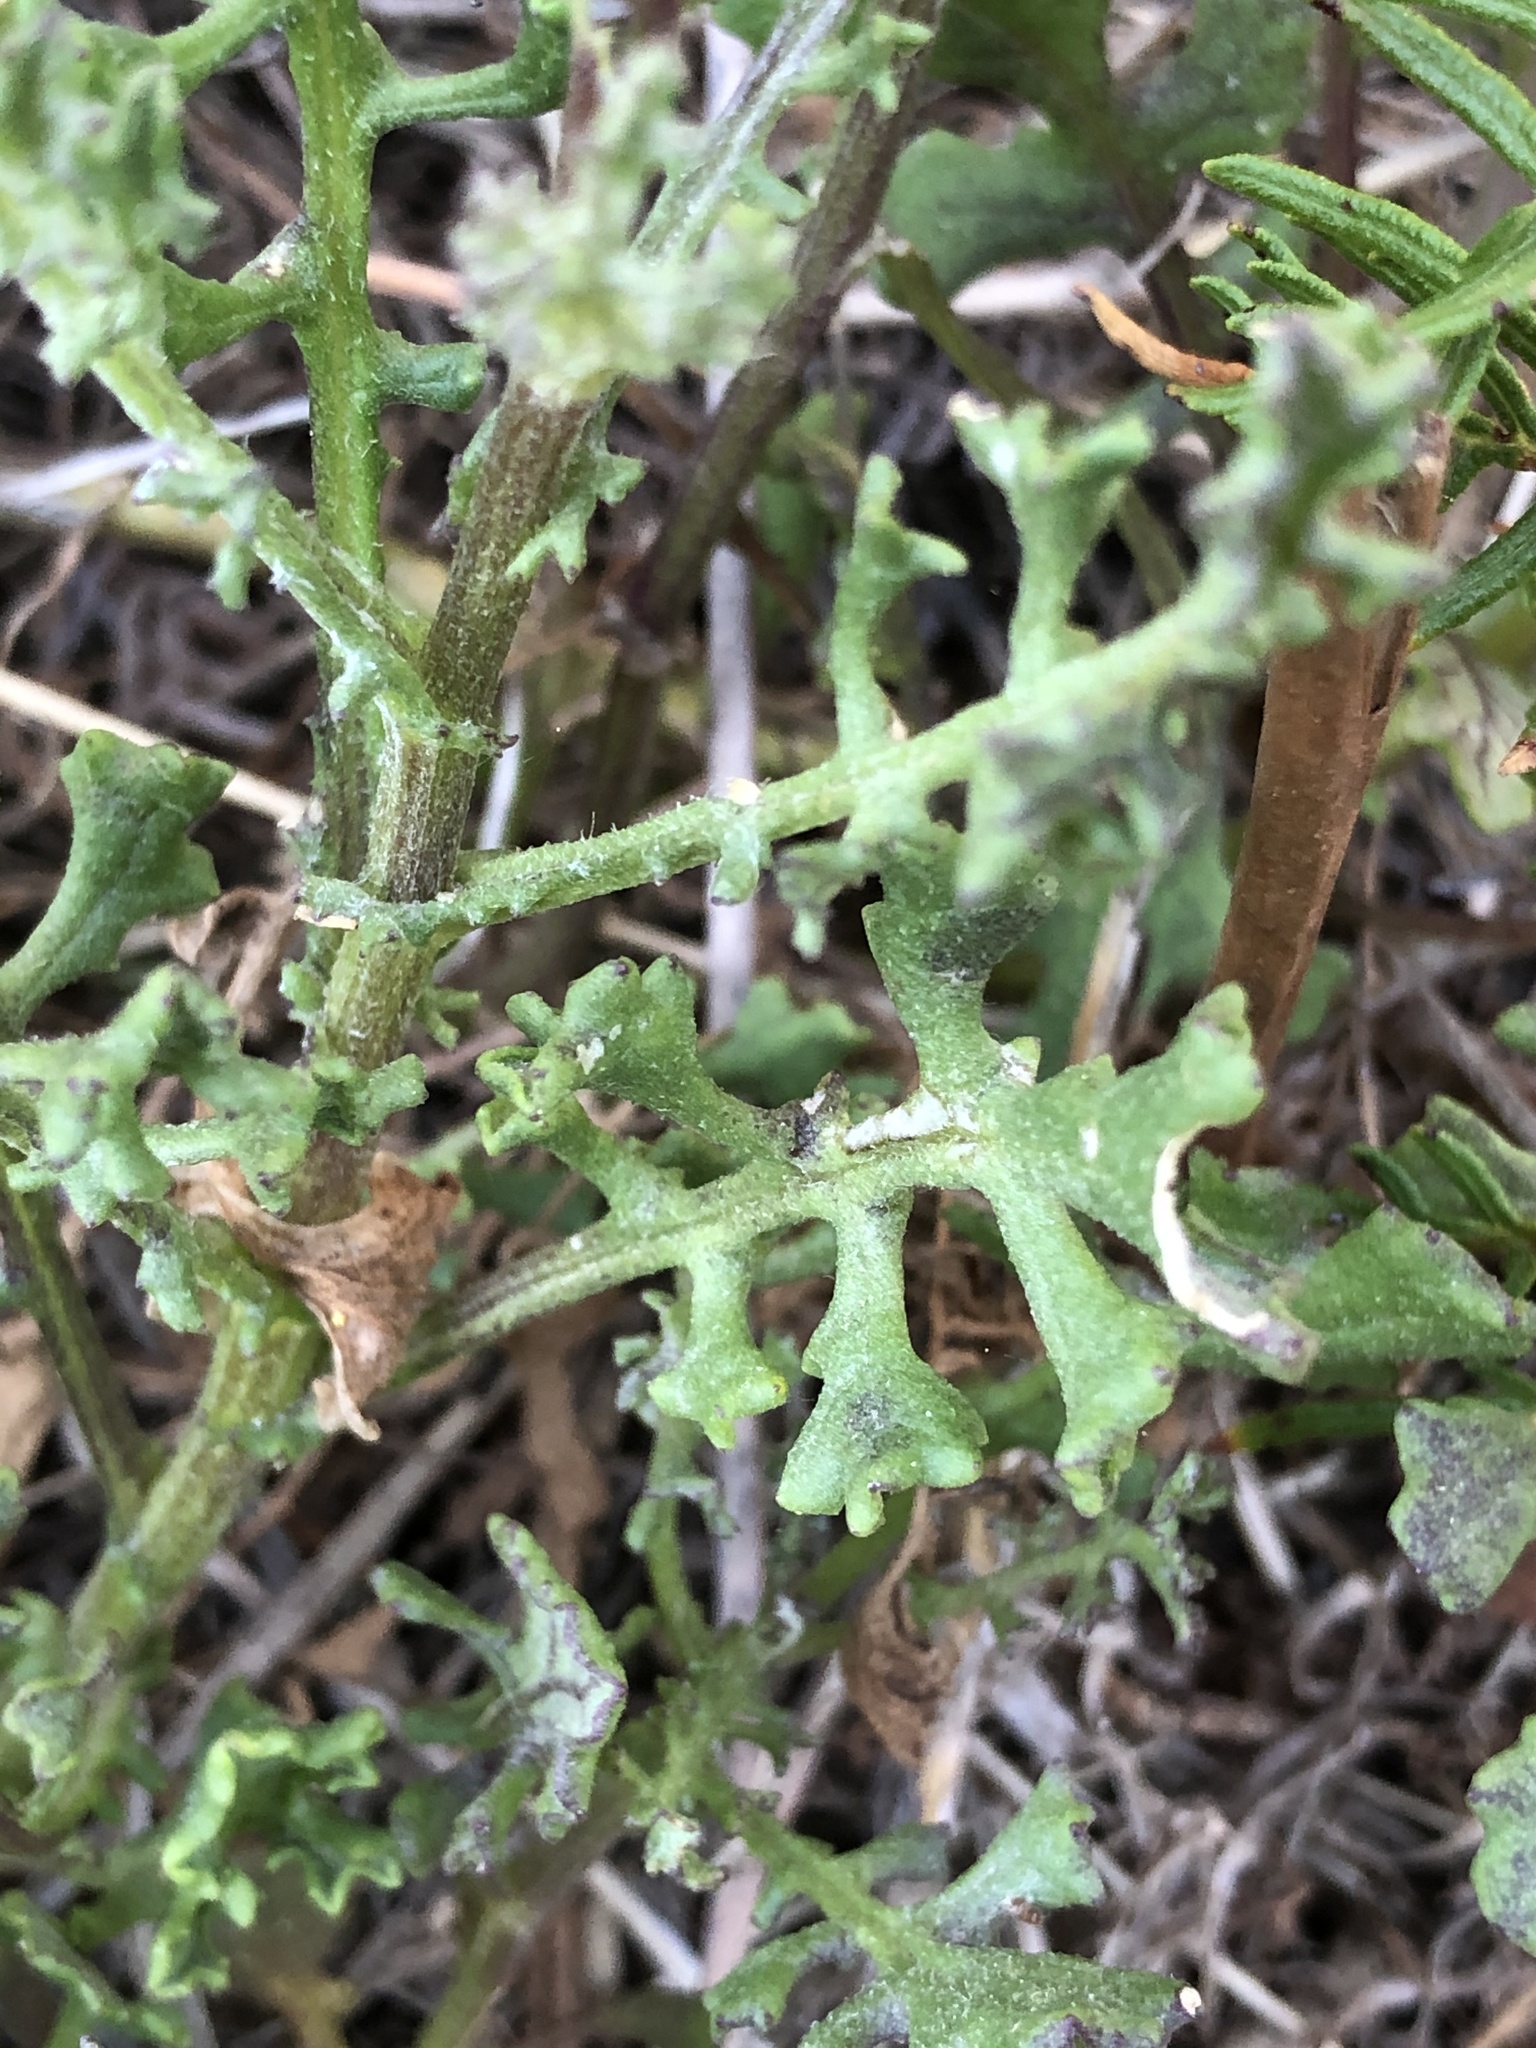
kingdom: Plantae
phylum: Tracheophyta
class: Magnoliopsida
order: Asterales
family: Asteraceae
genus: Senecio
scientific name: Senecio elegans
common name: Purple groundsel
